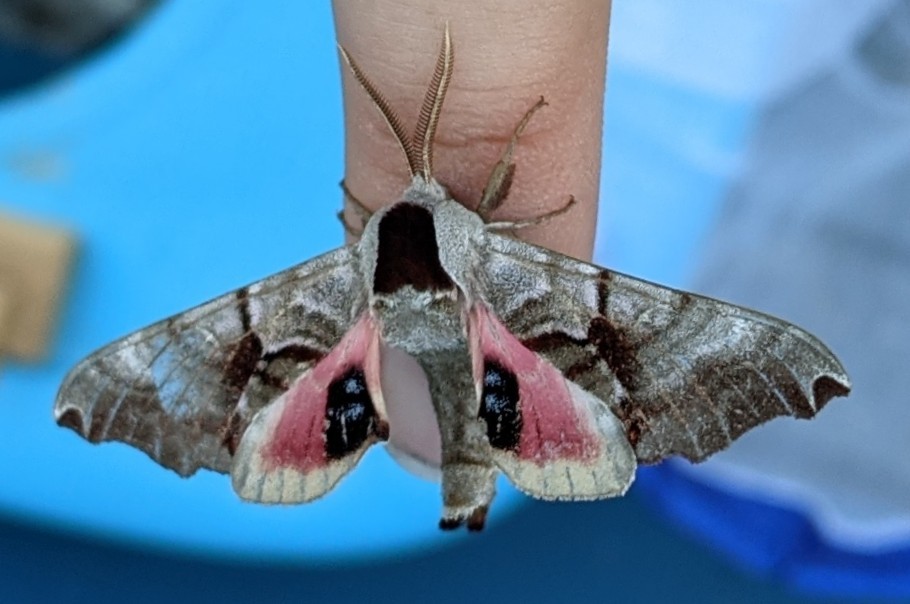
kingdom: Animalia
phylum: Arthropoda
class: Insecta
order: Lepidoptera
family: Sphingidae
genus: Smerinthus
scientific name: Smerinthus jamaicensis
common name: Twin spotted sphinx
